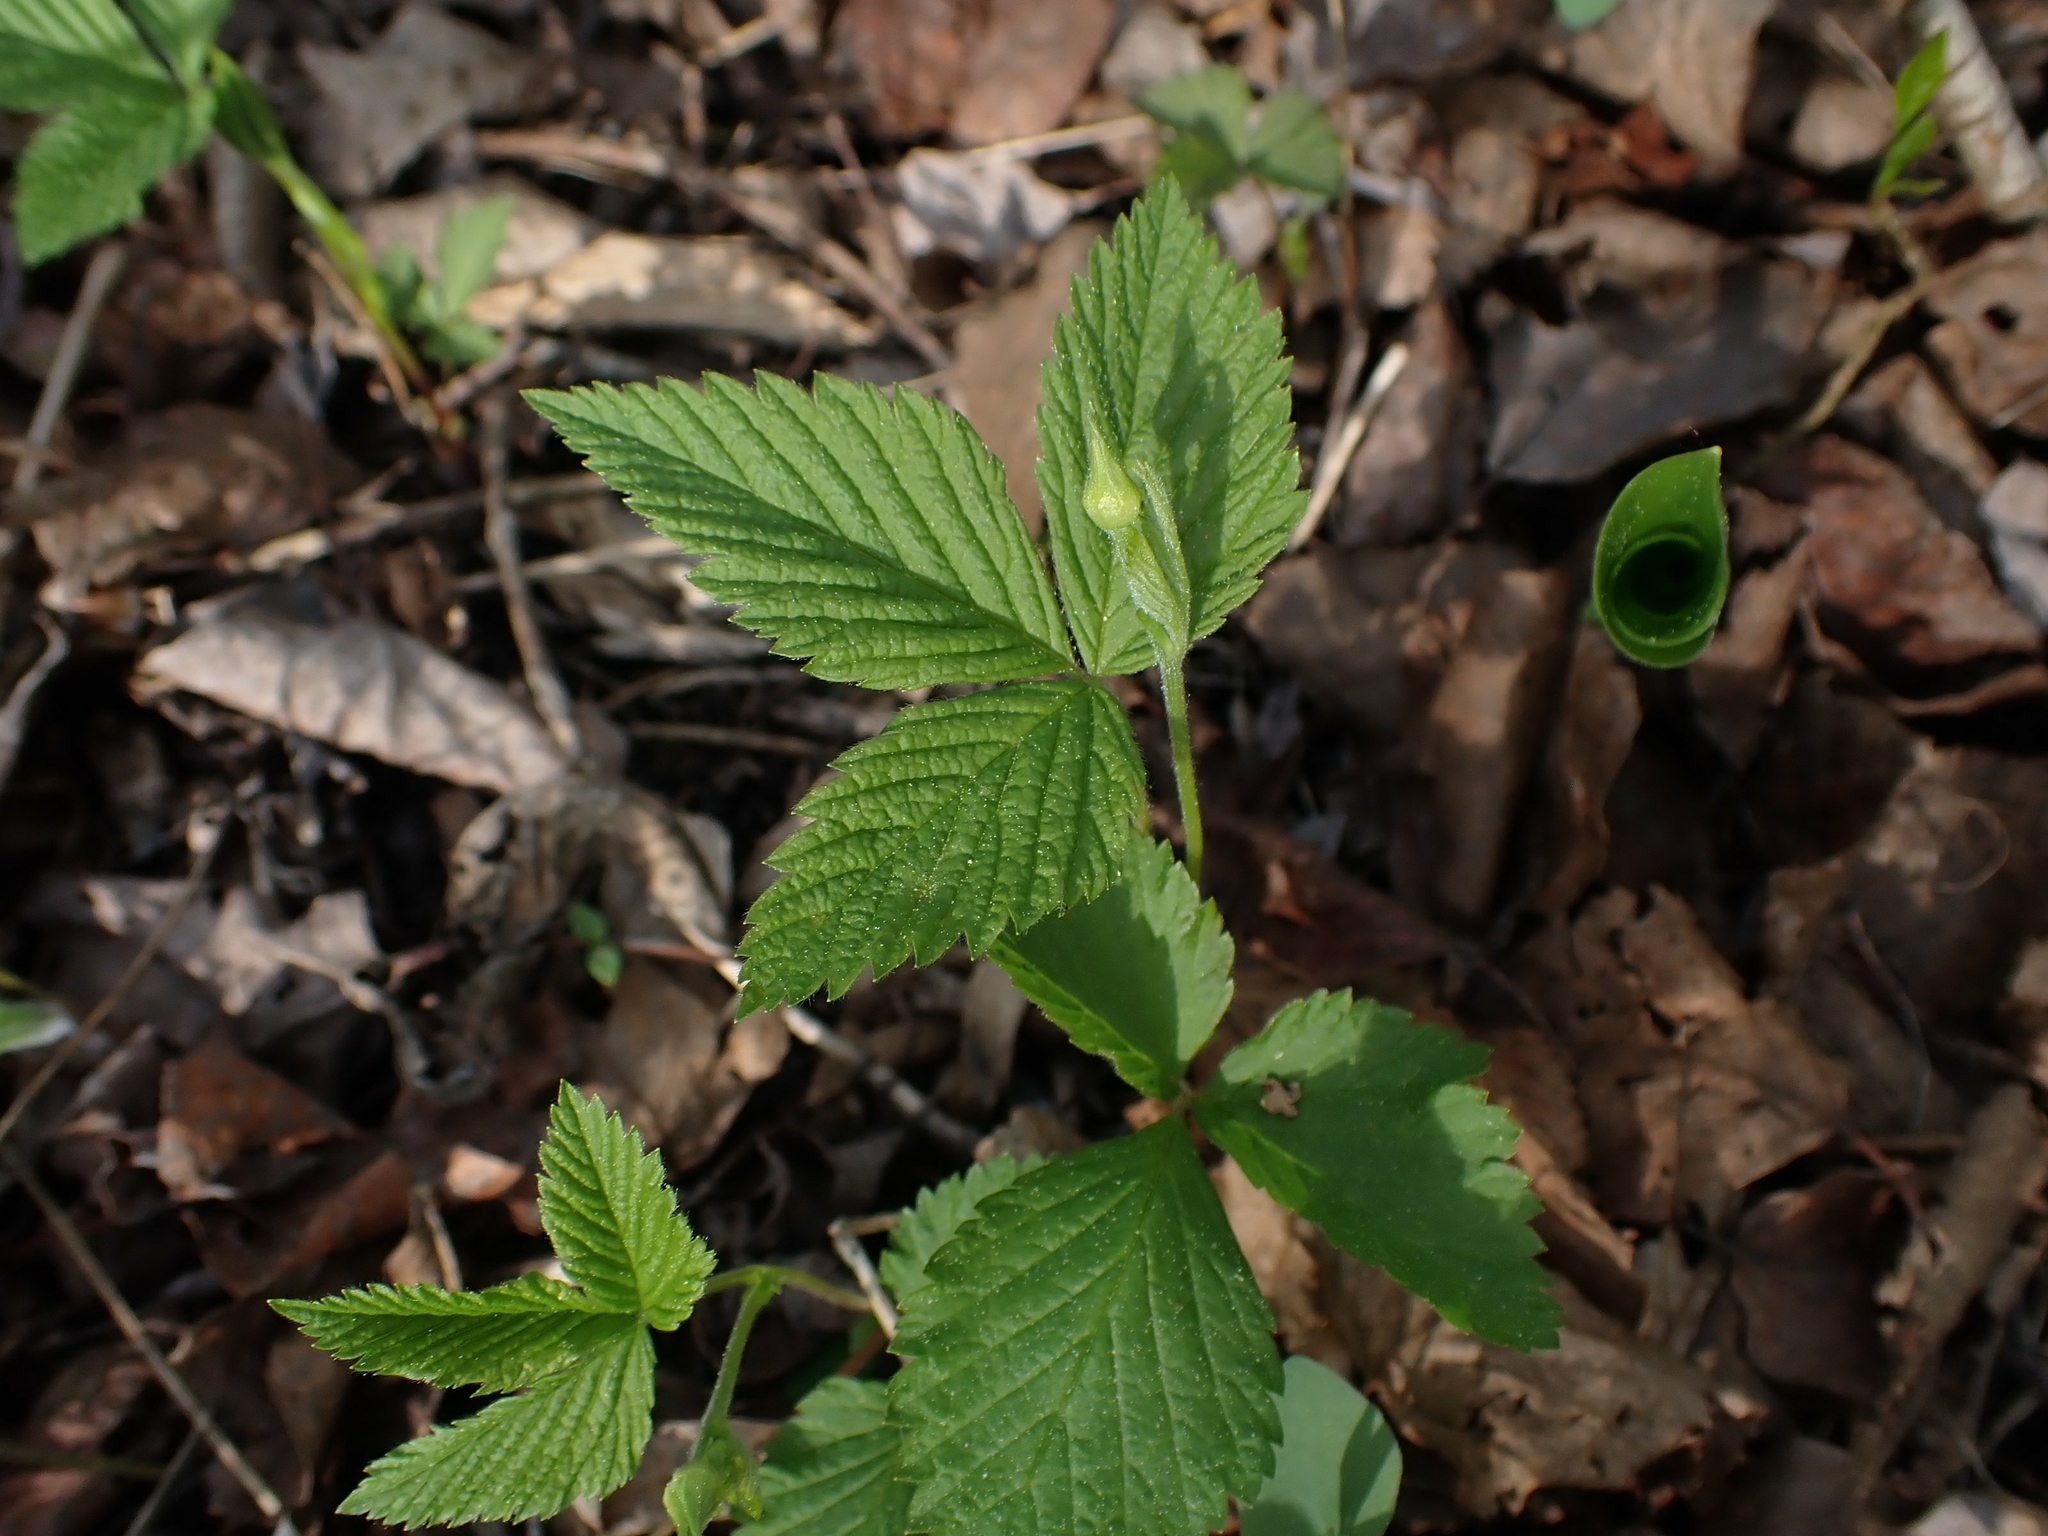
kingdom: Plantae
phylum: Tracheophyta
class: Magnoliopsida
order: Rosales
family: Rosaceae
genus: Rubus
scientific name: Rubus pubescens
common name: Dwarf raspberry
